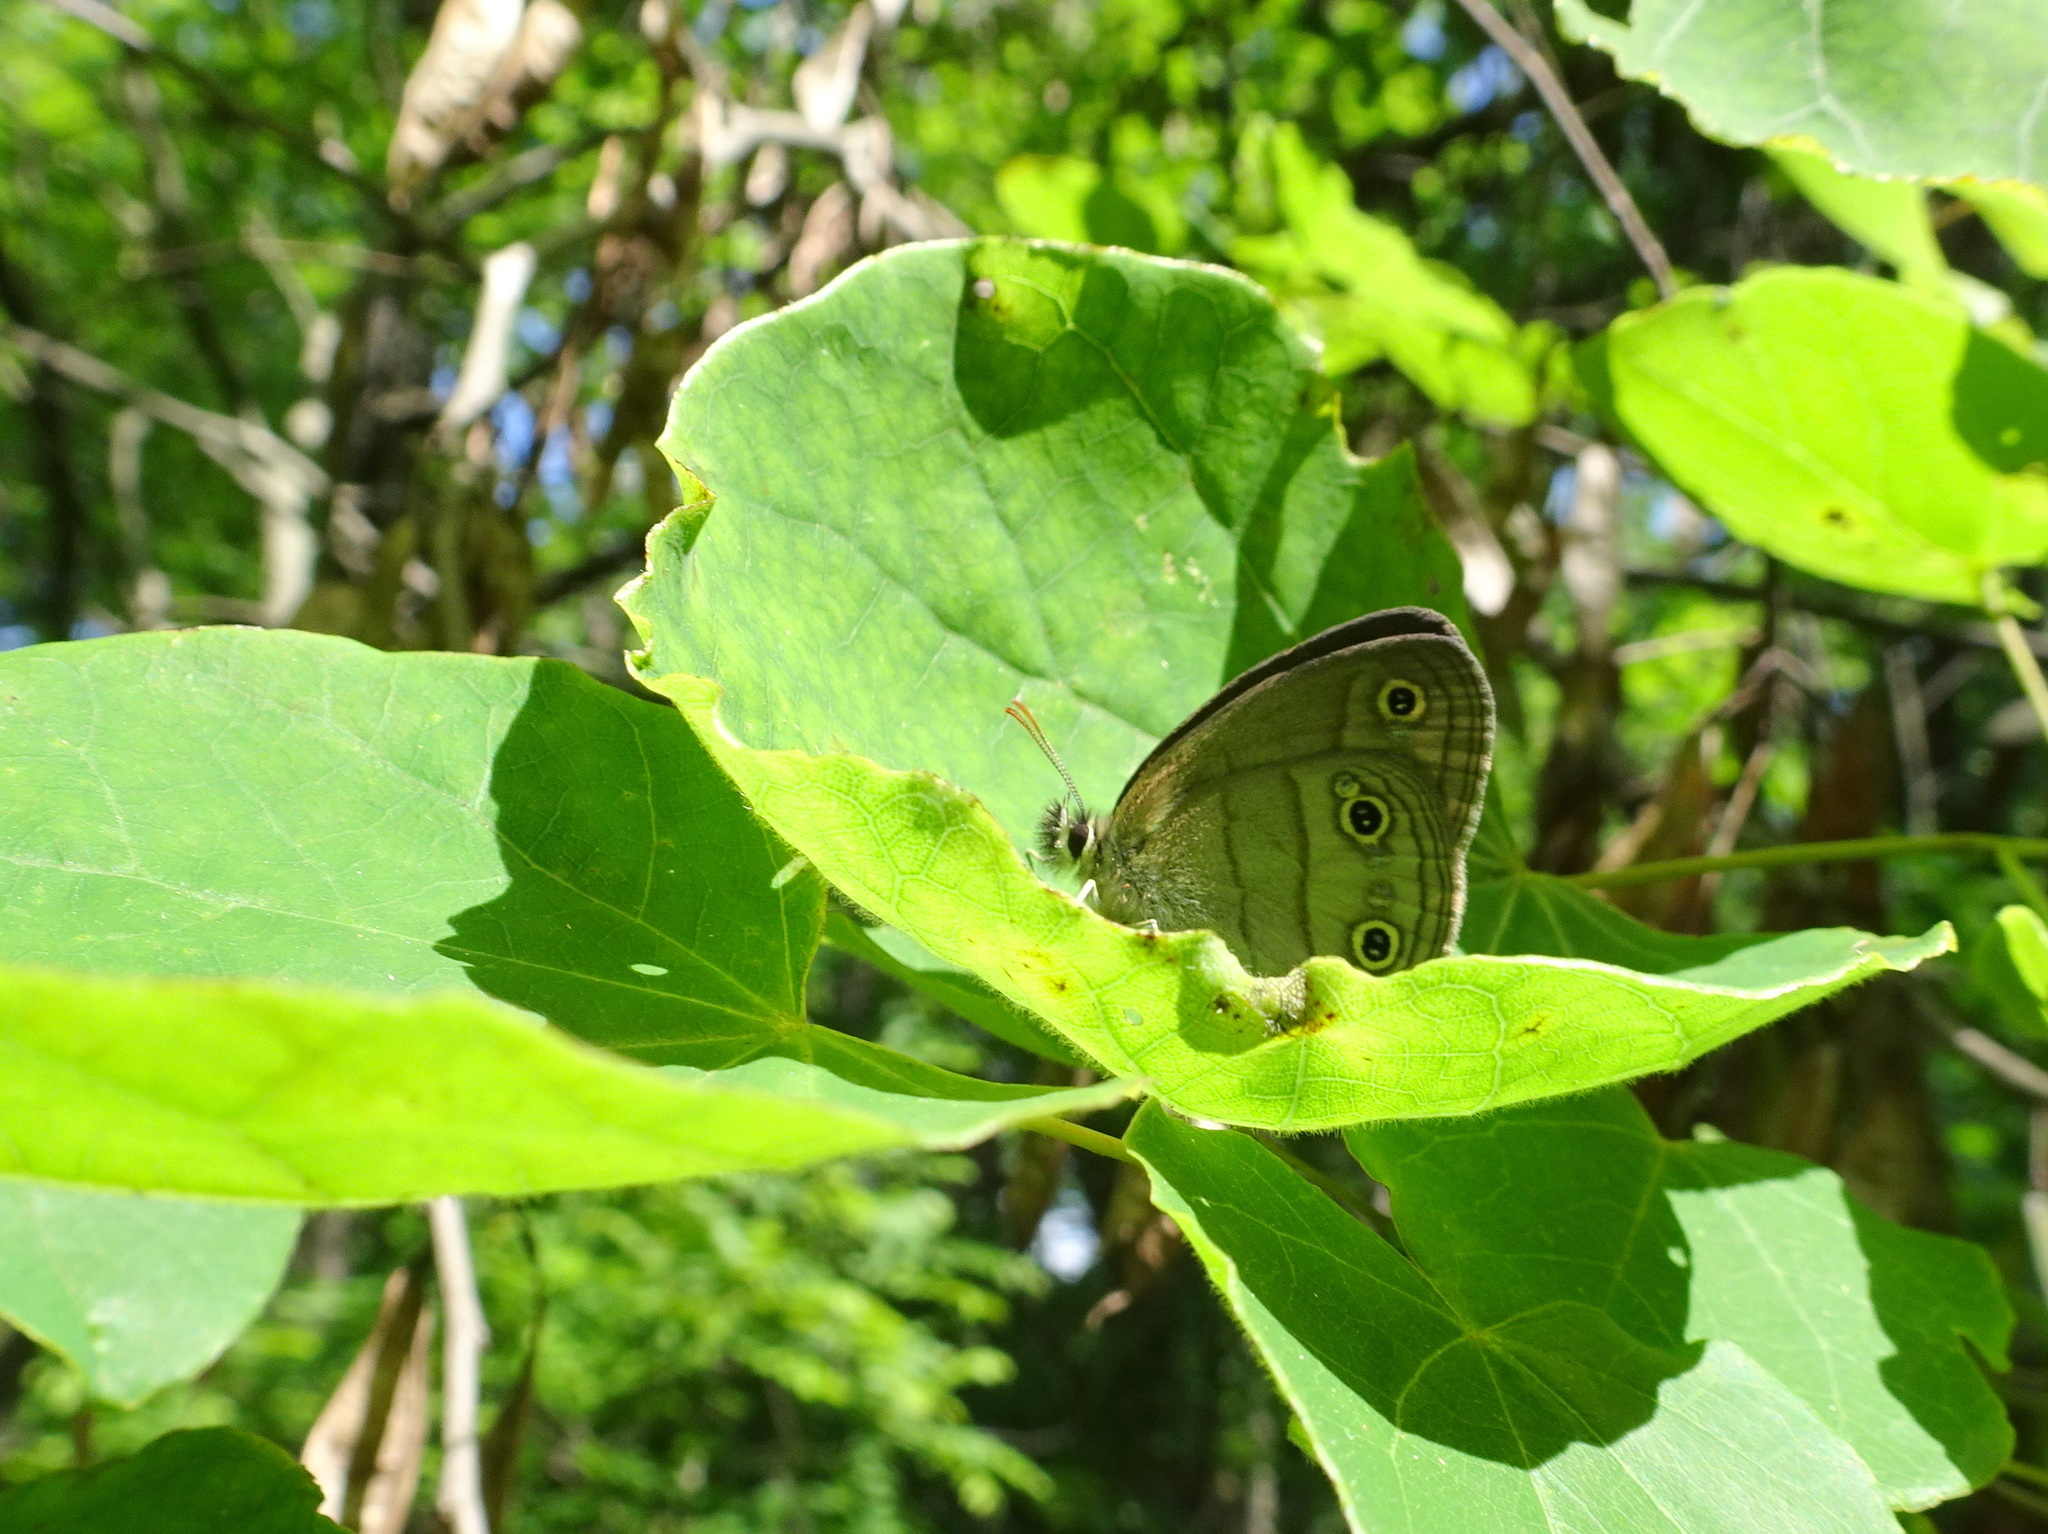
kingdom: Animalia
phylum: Arthropoda
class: Insecta
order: Lepidoptera
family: Nymphalidae
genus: Euptychia
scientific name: Euptychia cymela
